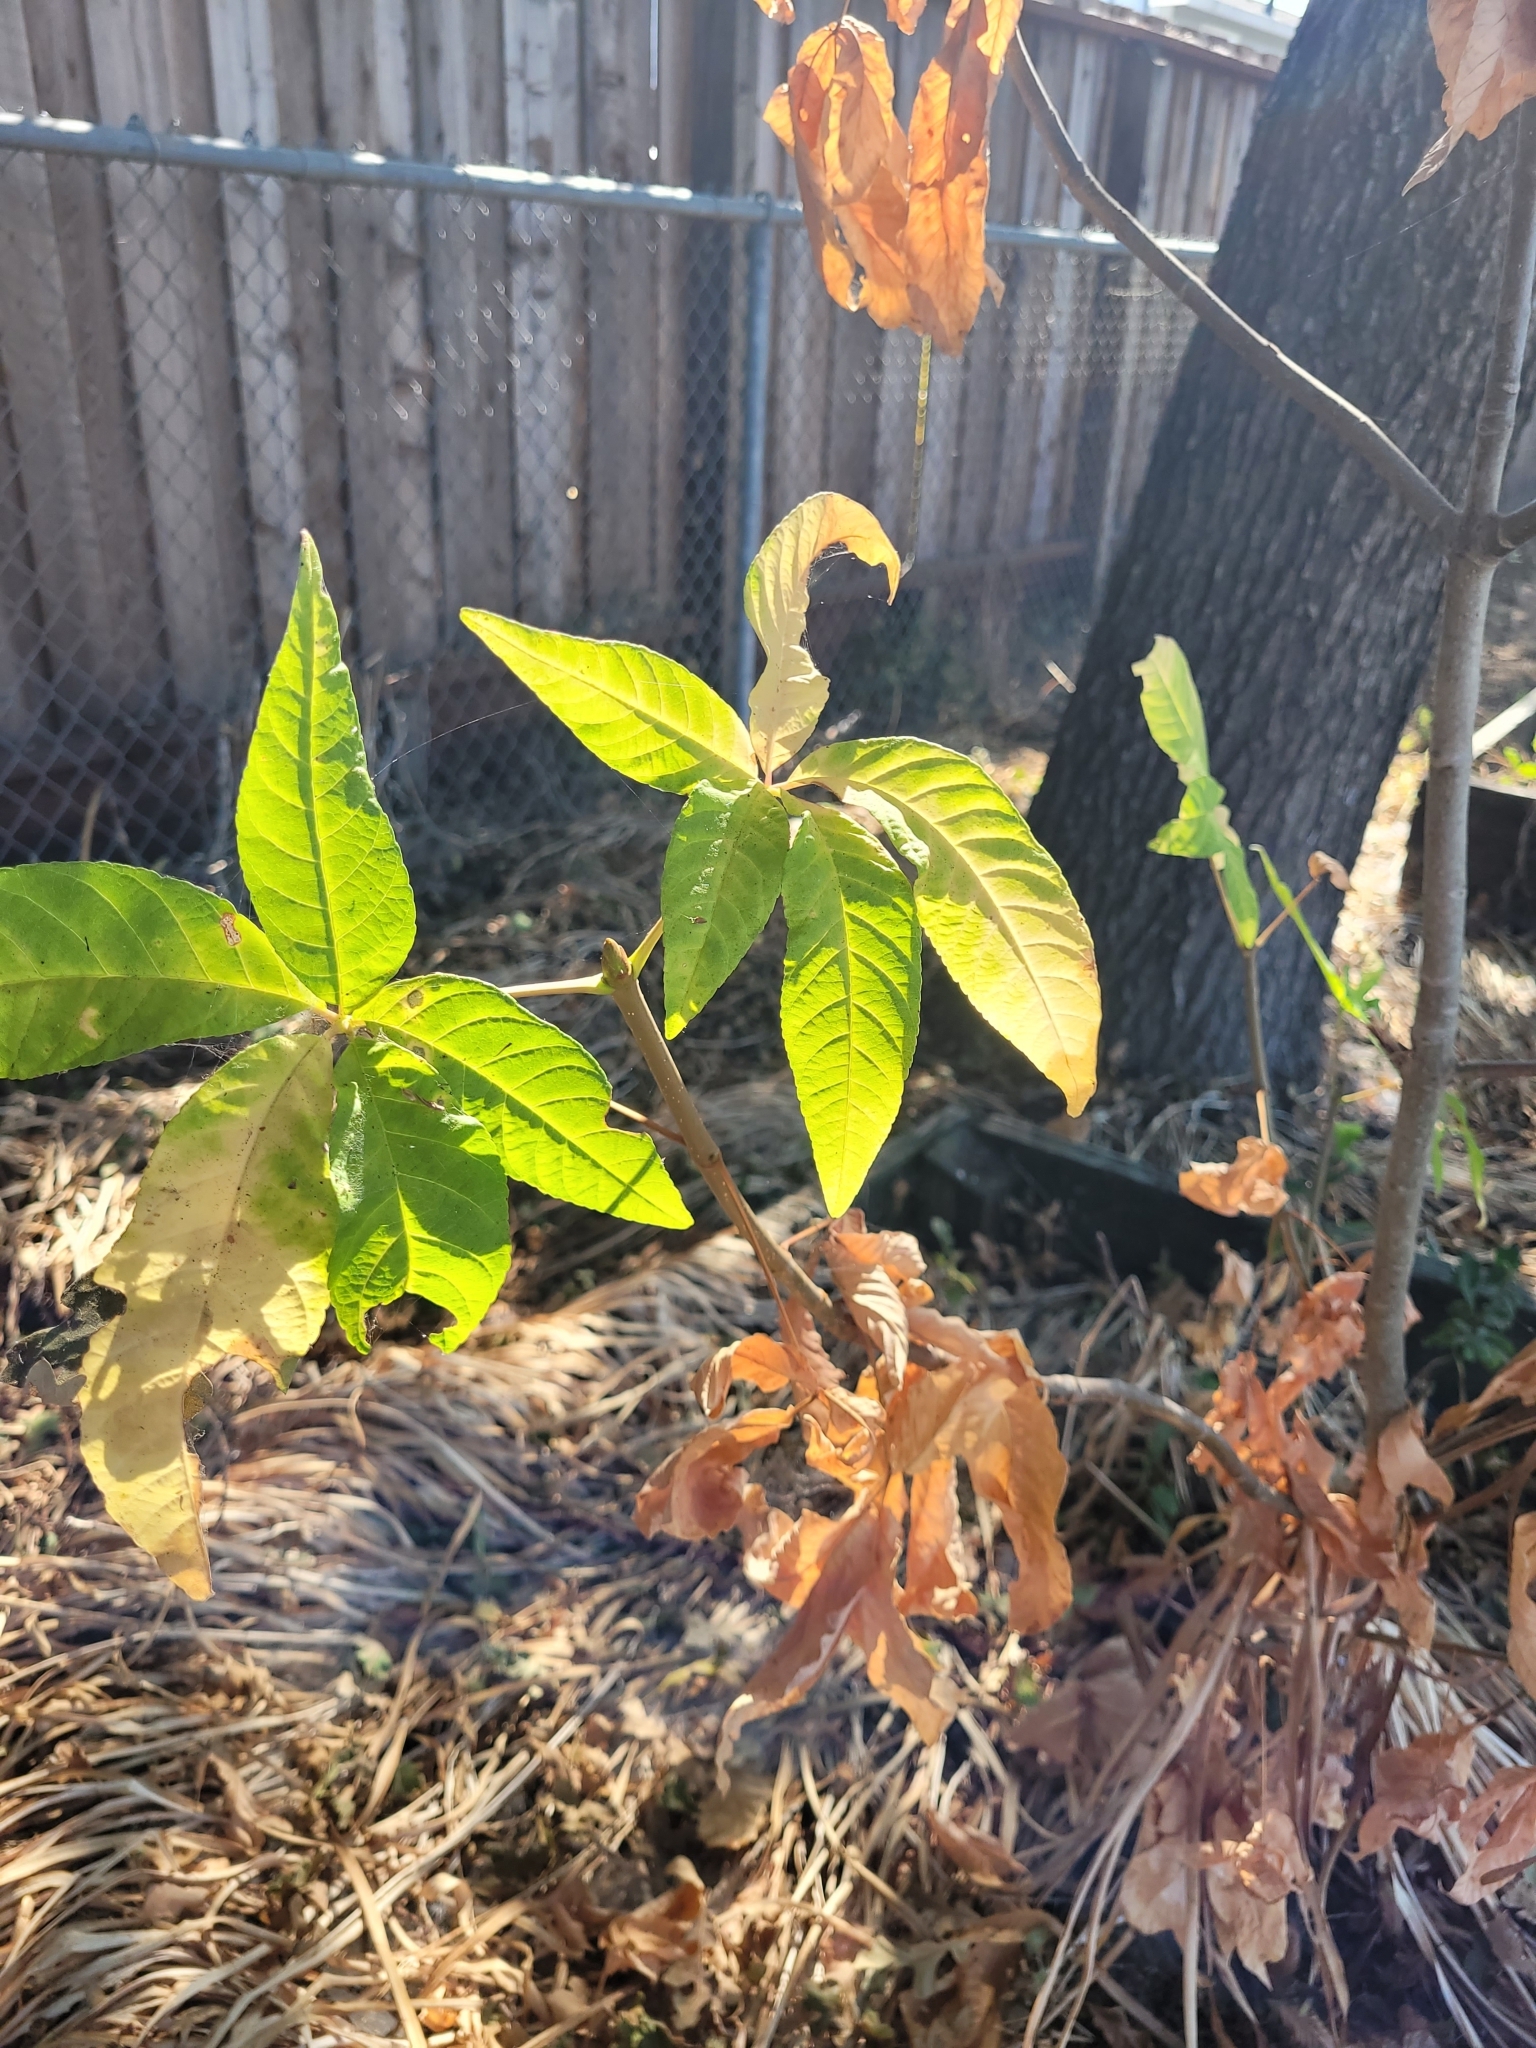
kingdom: Plantae
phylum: Tracheophyta
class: Magnoliopsida
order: Sapindales
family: Sapindaceae
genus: Aesculus
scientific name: Aesculus californica
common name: California buckeye
